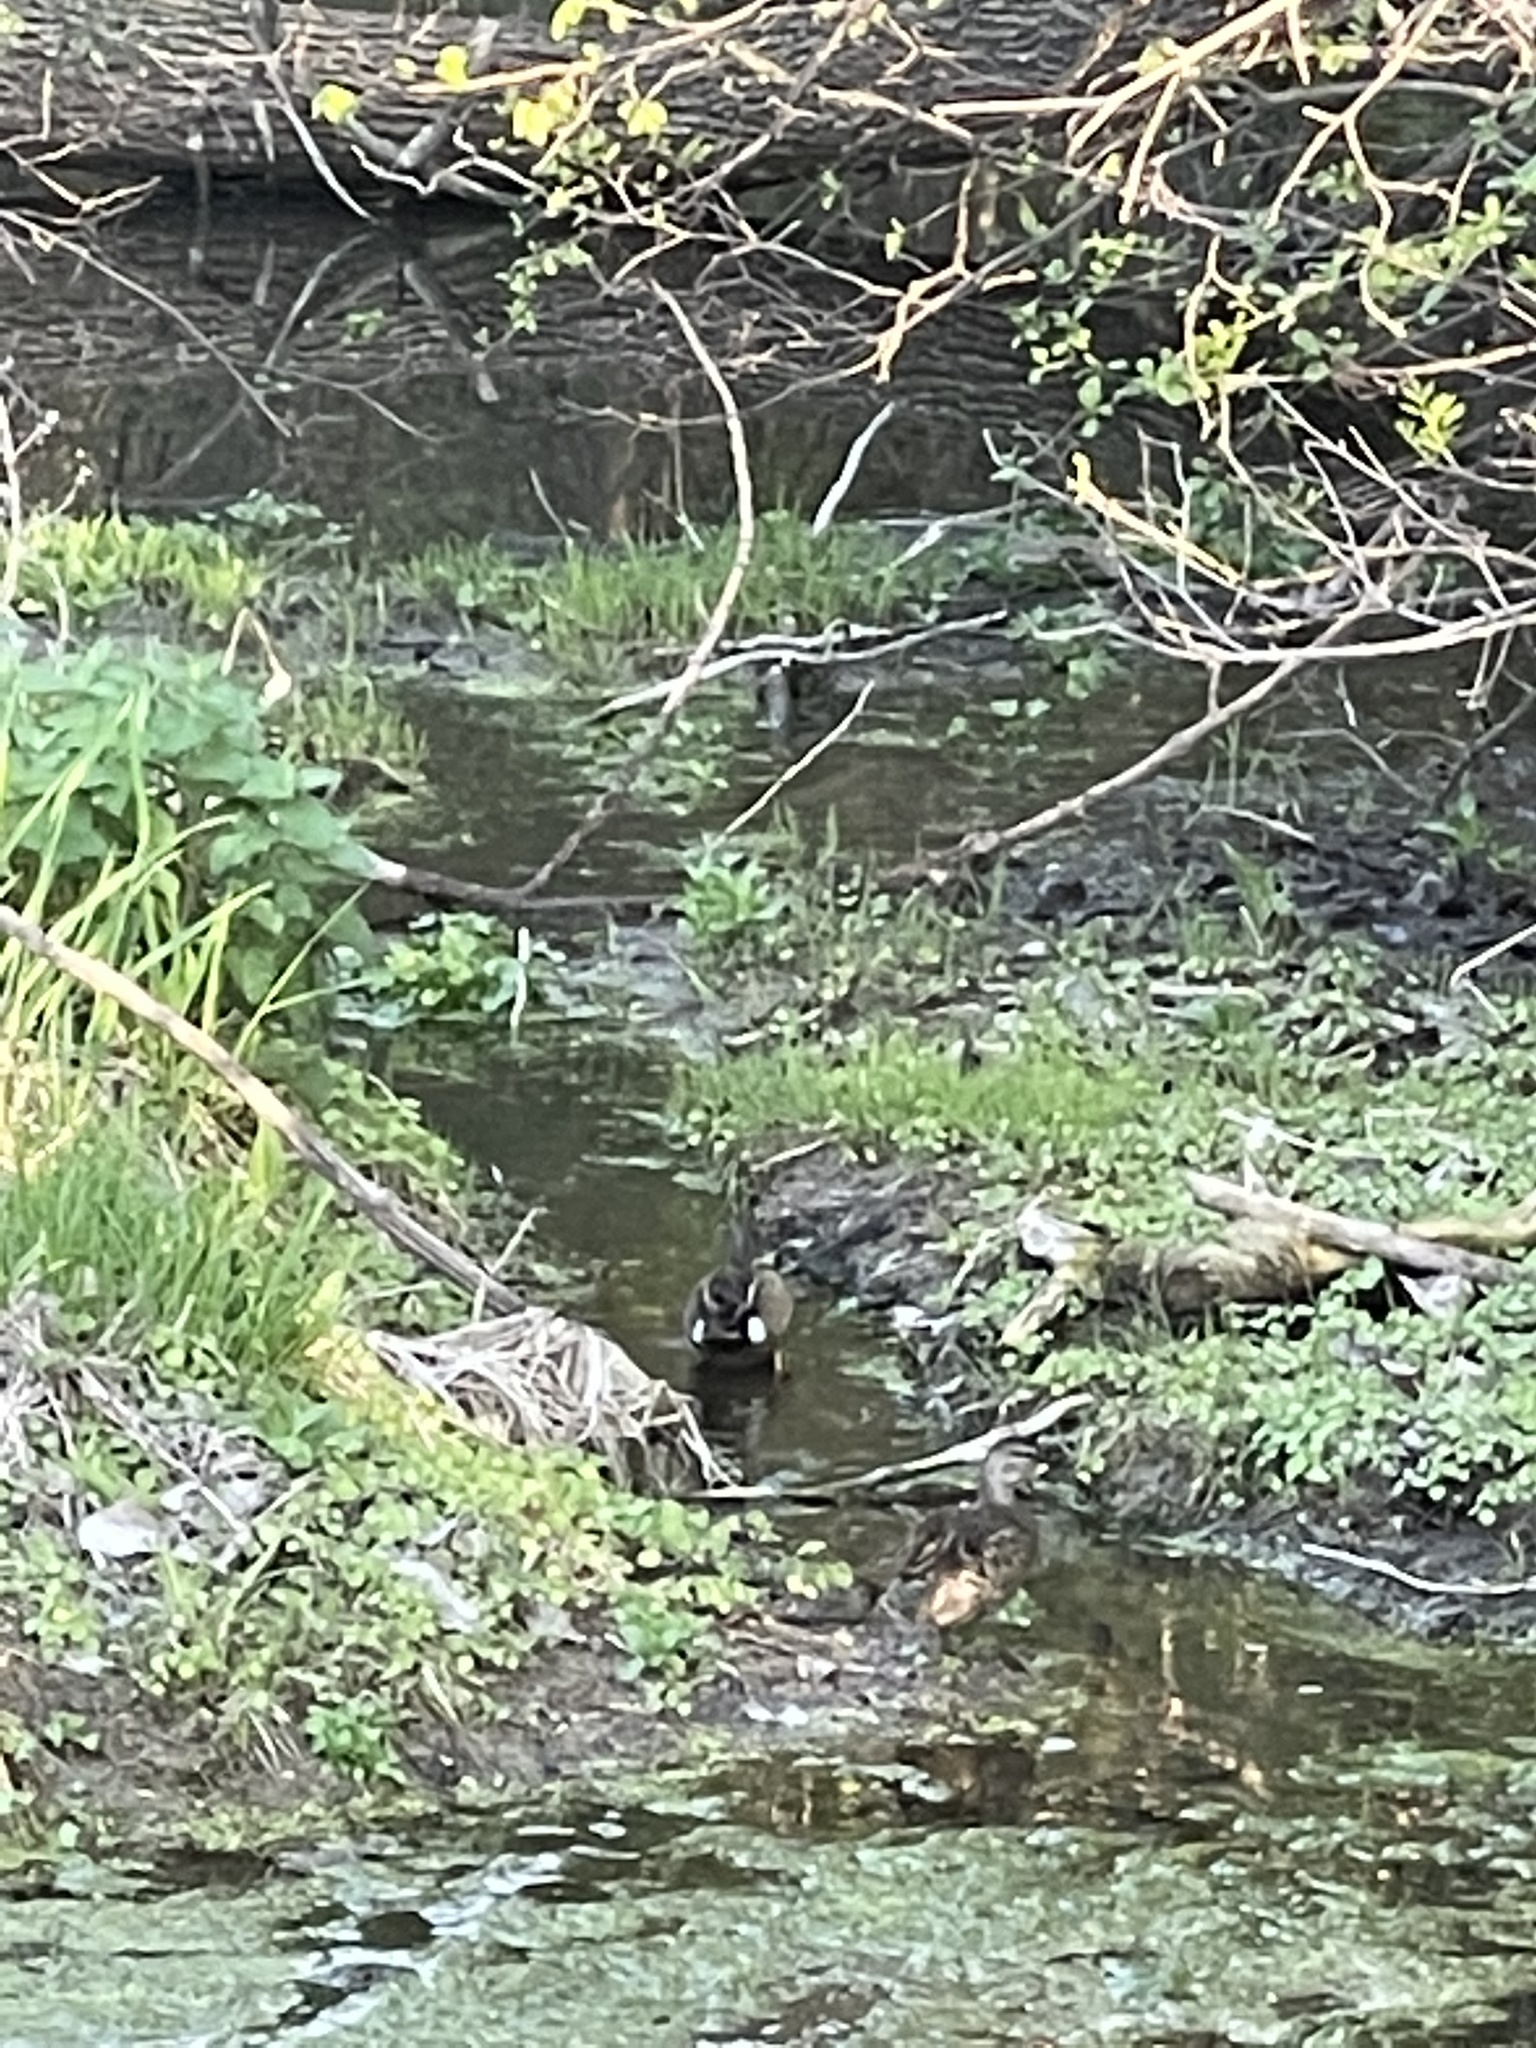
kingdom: Animalia
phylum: Chordata
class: Aves
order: Anseriformes
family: Anatidae
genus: Spatula
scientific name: Spatula discors
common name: Blue-winged teal
